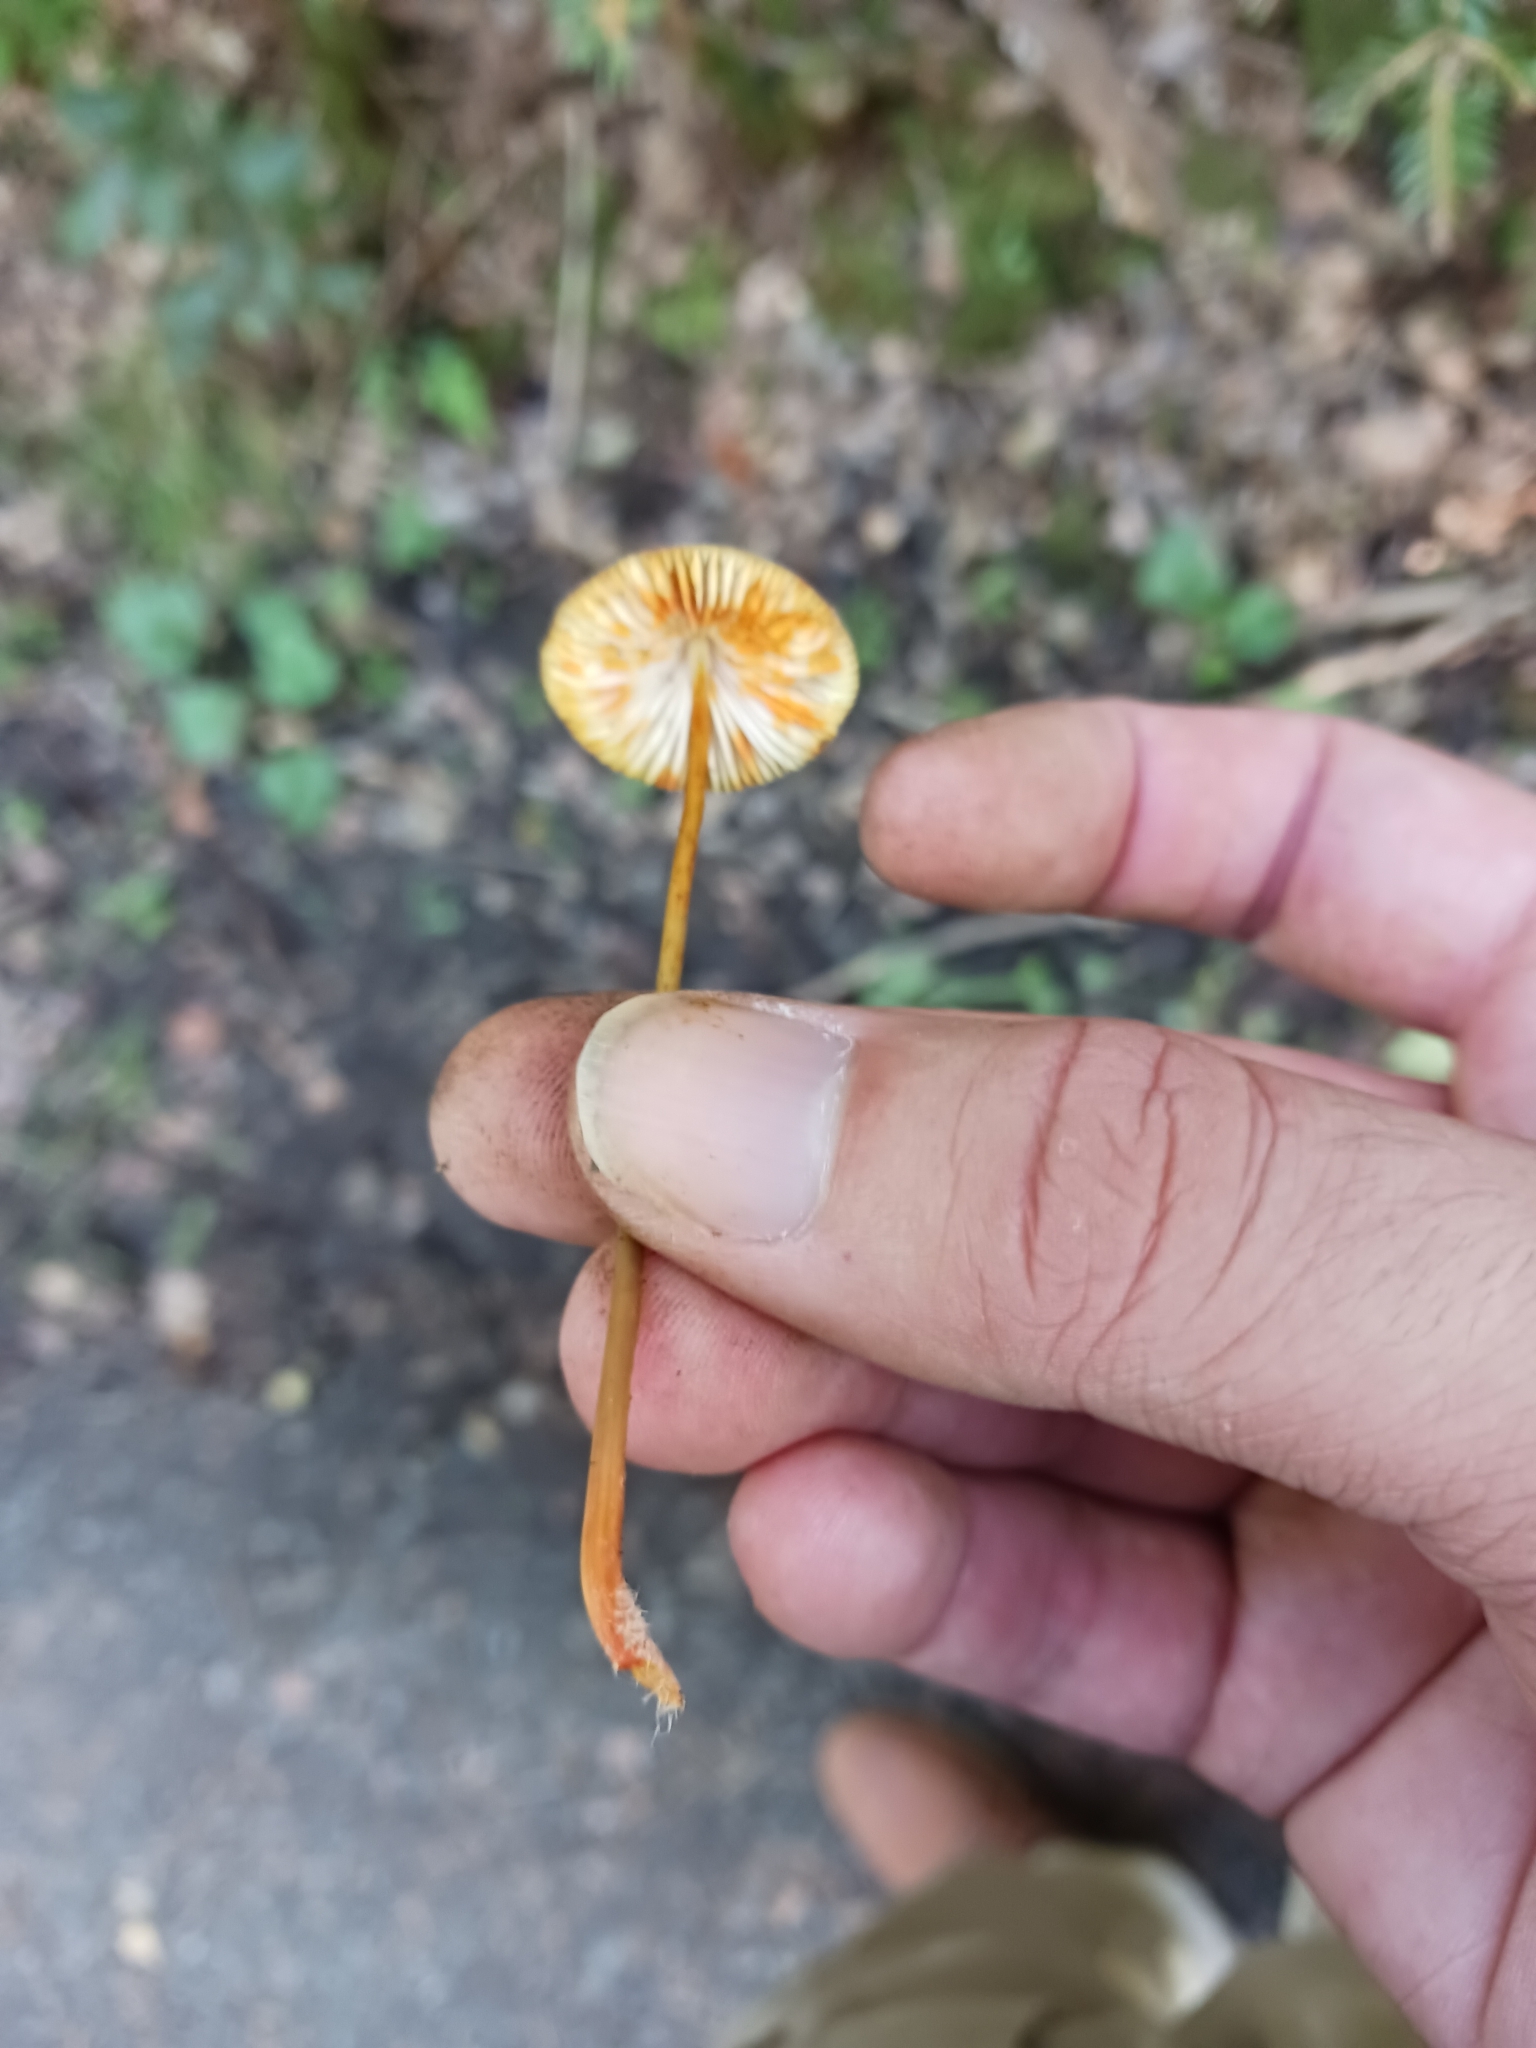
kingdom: Fungi
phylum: Basidiomycota
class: Agaricomycetes
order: Agaricales
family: Mycenaceae
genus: Mycena
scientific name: Mycena crocata
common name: Saffrondrop bonnet
